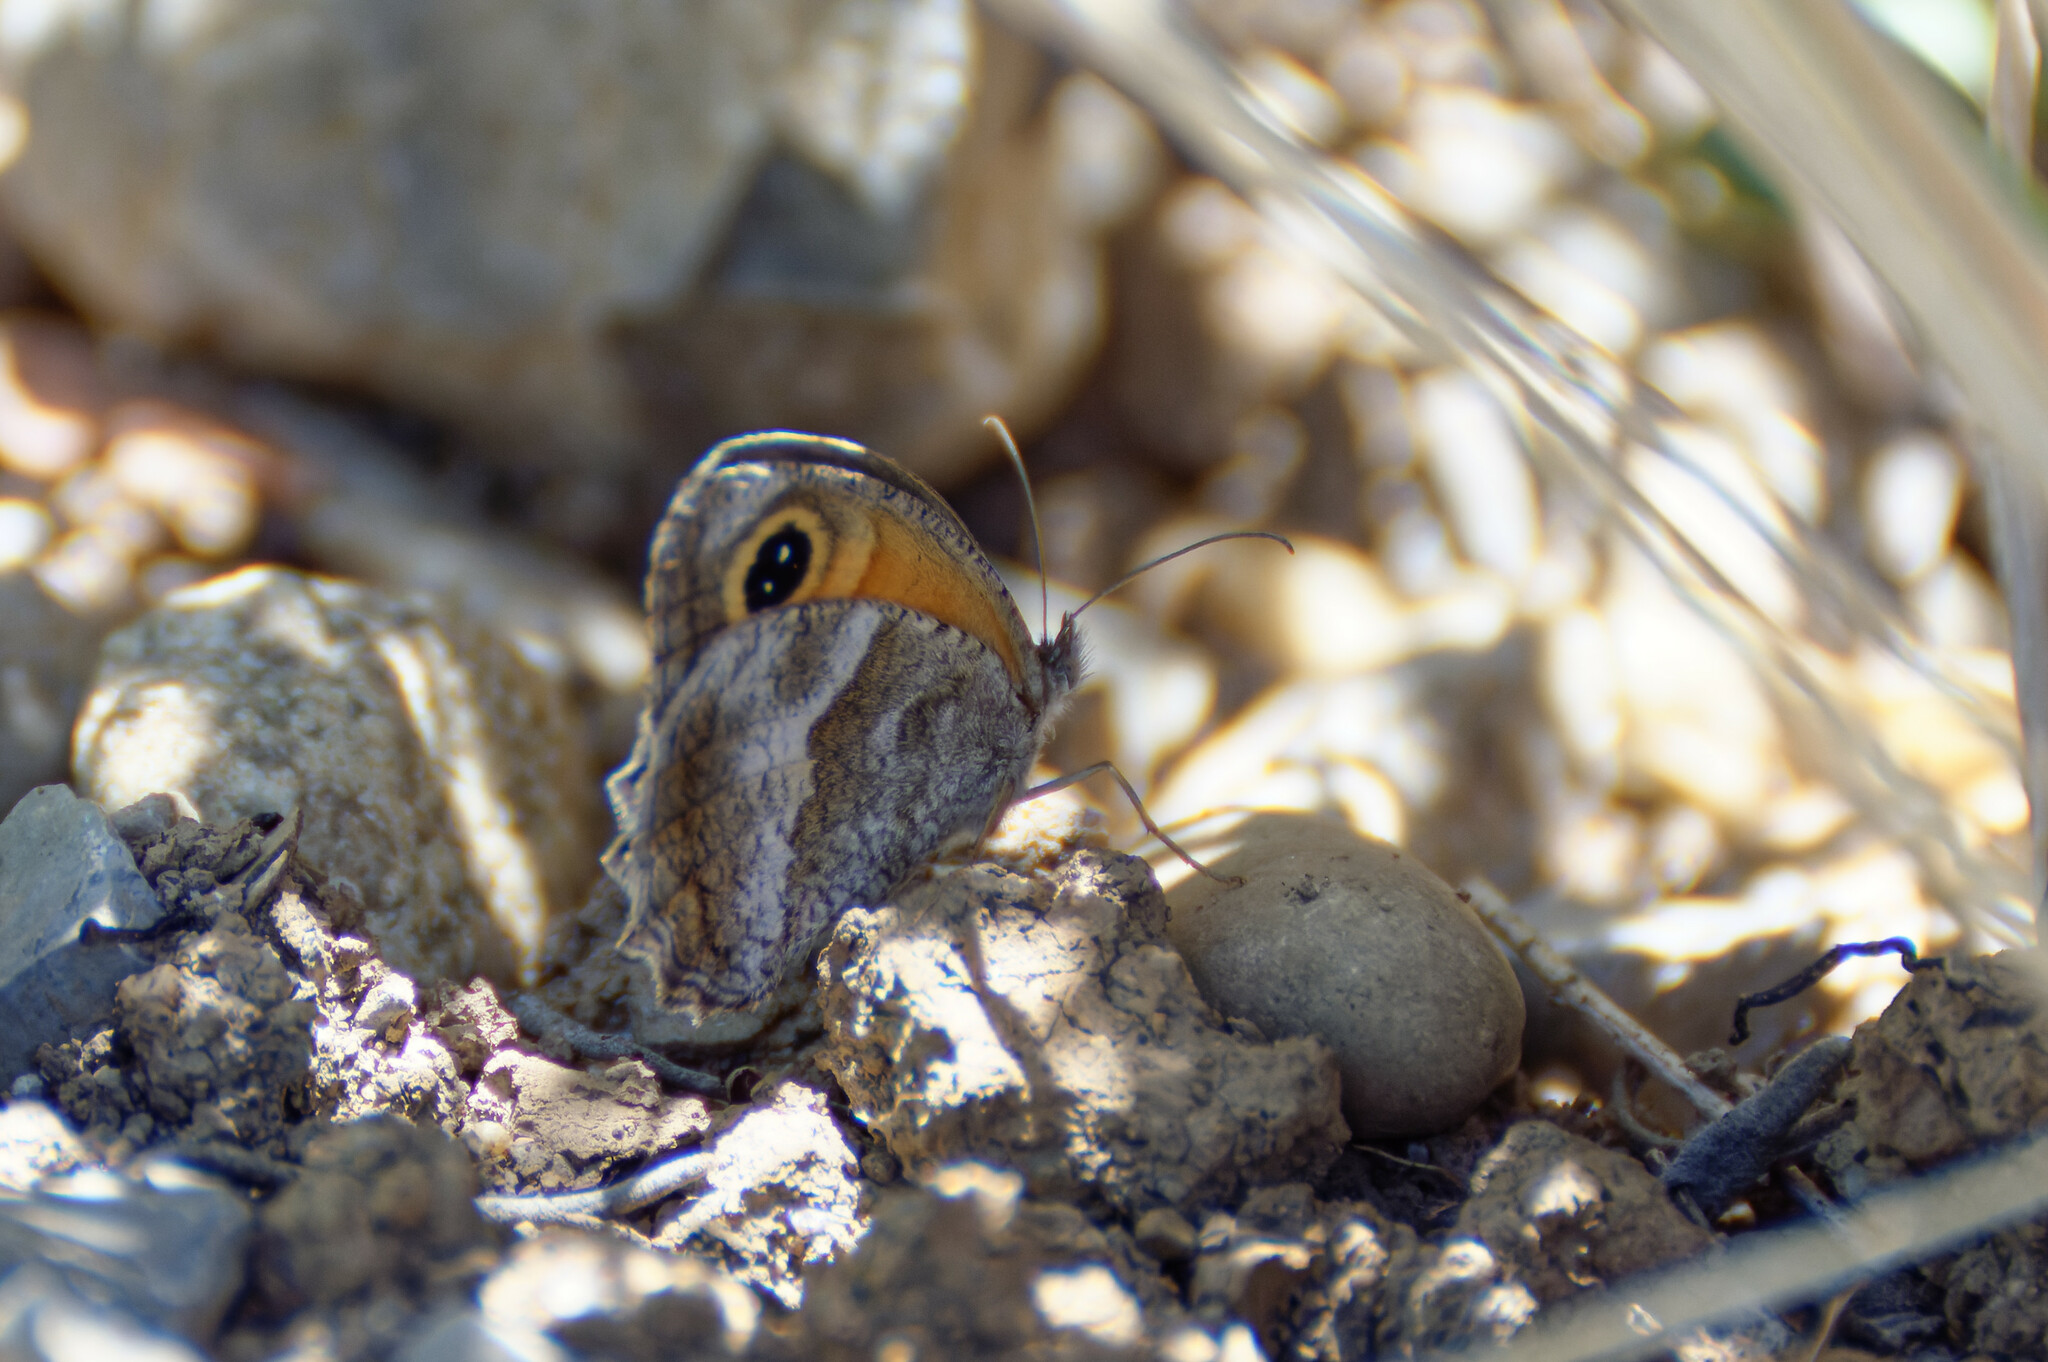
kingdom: Animalia
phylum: Arthropoda
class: Insecta
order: Lepidoptera
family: Nymphalidae
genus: Pyronia
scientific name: Pyronia cecilia
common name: Southern gatekeeper
